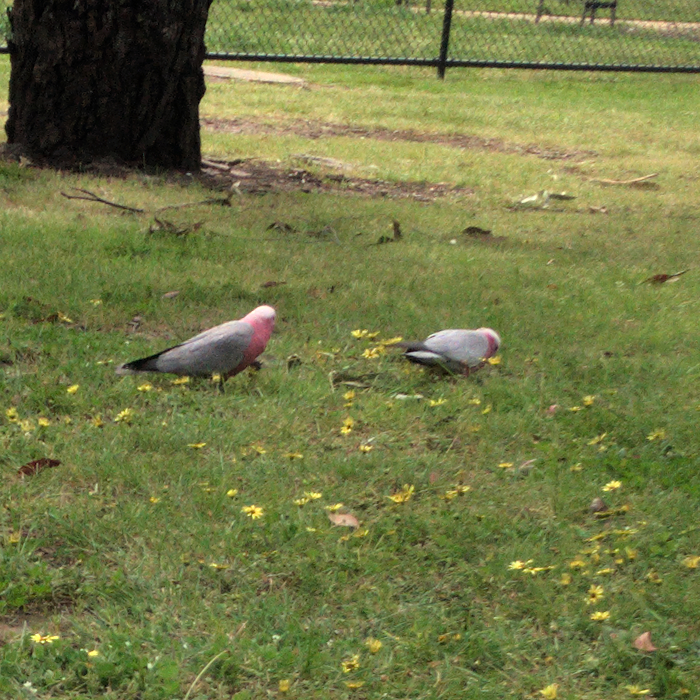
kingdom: Animalia
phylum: Chordata
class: Aves
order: Psittaciformes
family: Psittacidae
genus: Eolophus
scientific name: Eolophus roseicapilla
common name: Galah
